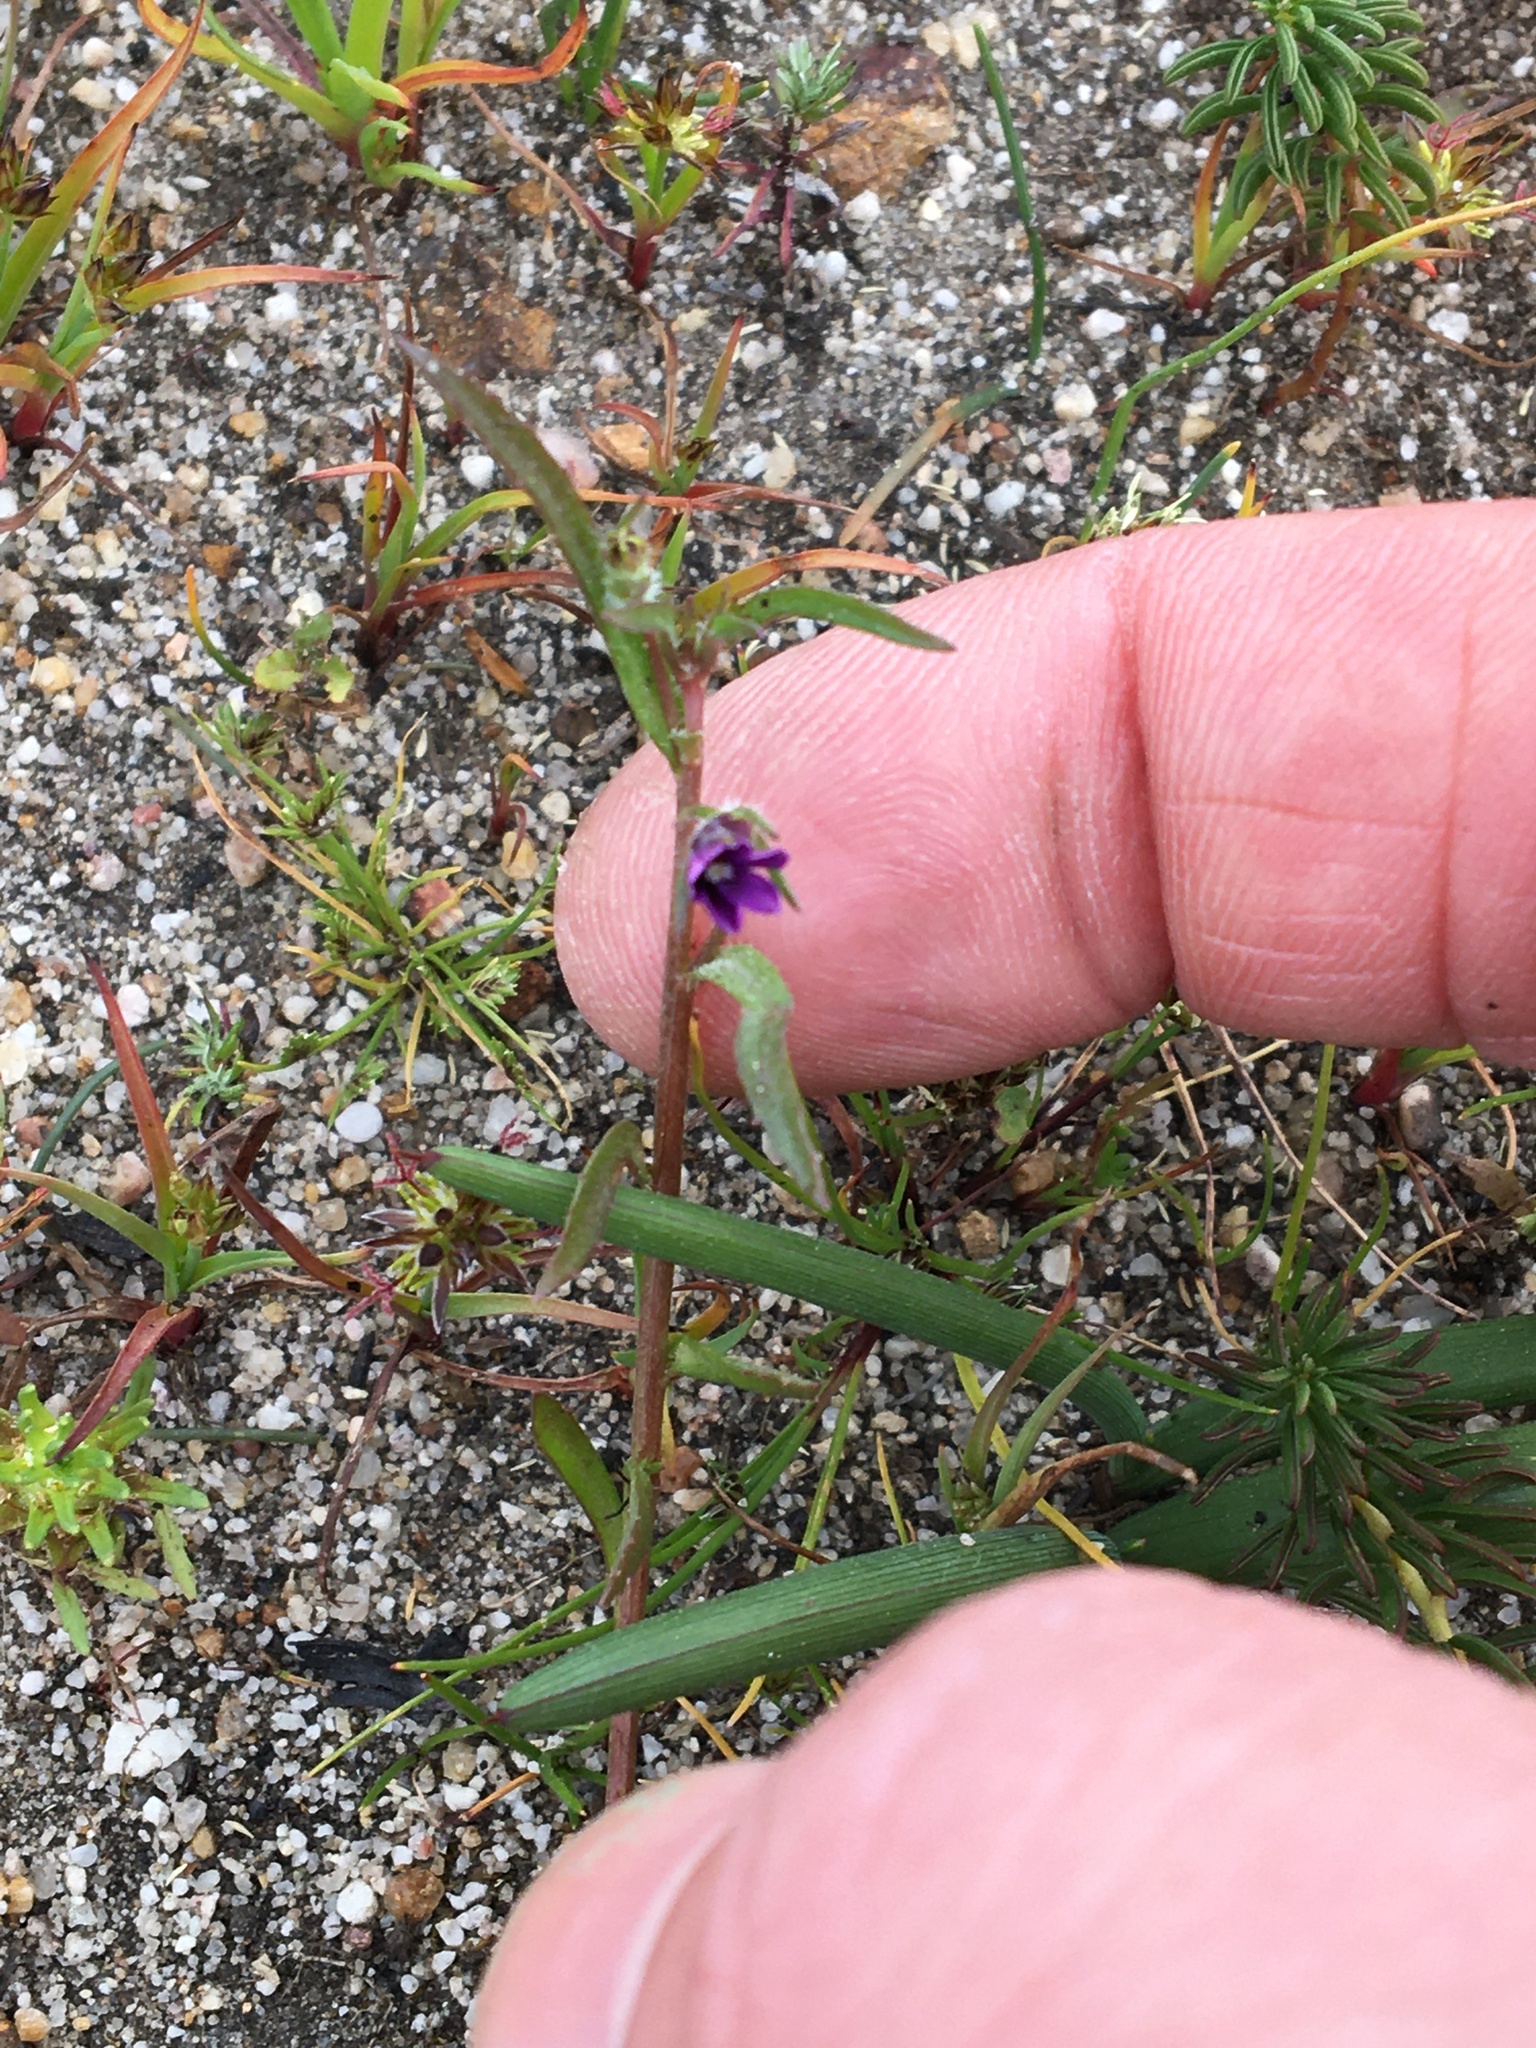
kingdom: Plantae
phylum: Tracheophyta
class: Magnoliopsida
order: Asterales
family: Campanulaceae
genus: Monopsis
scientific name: Monopsis debilis
